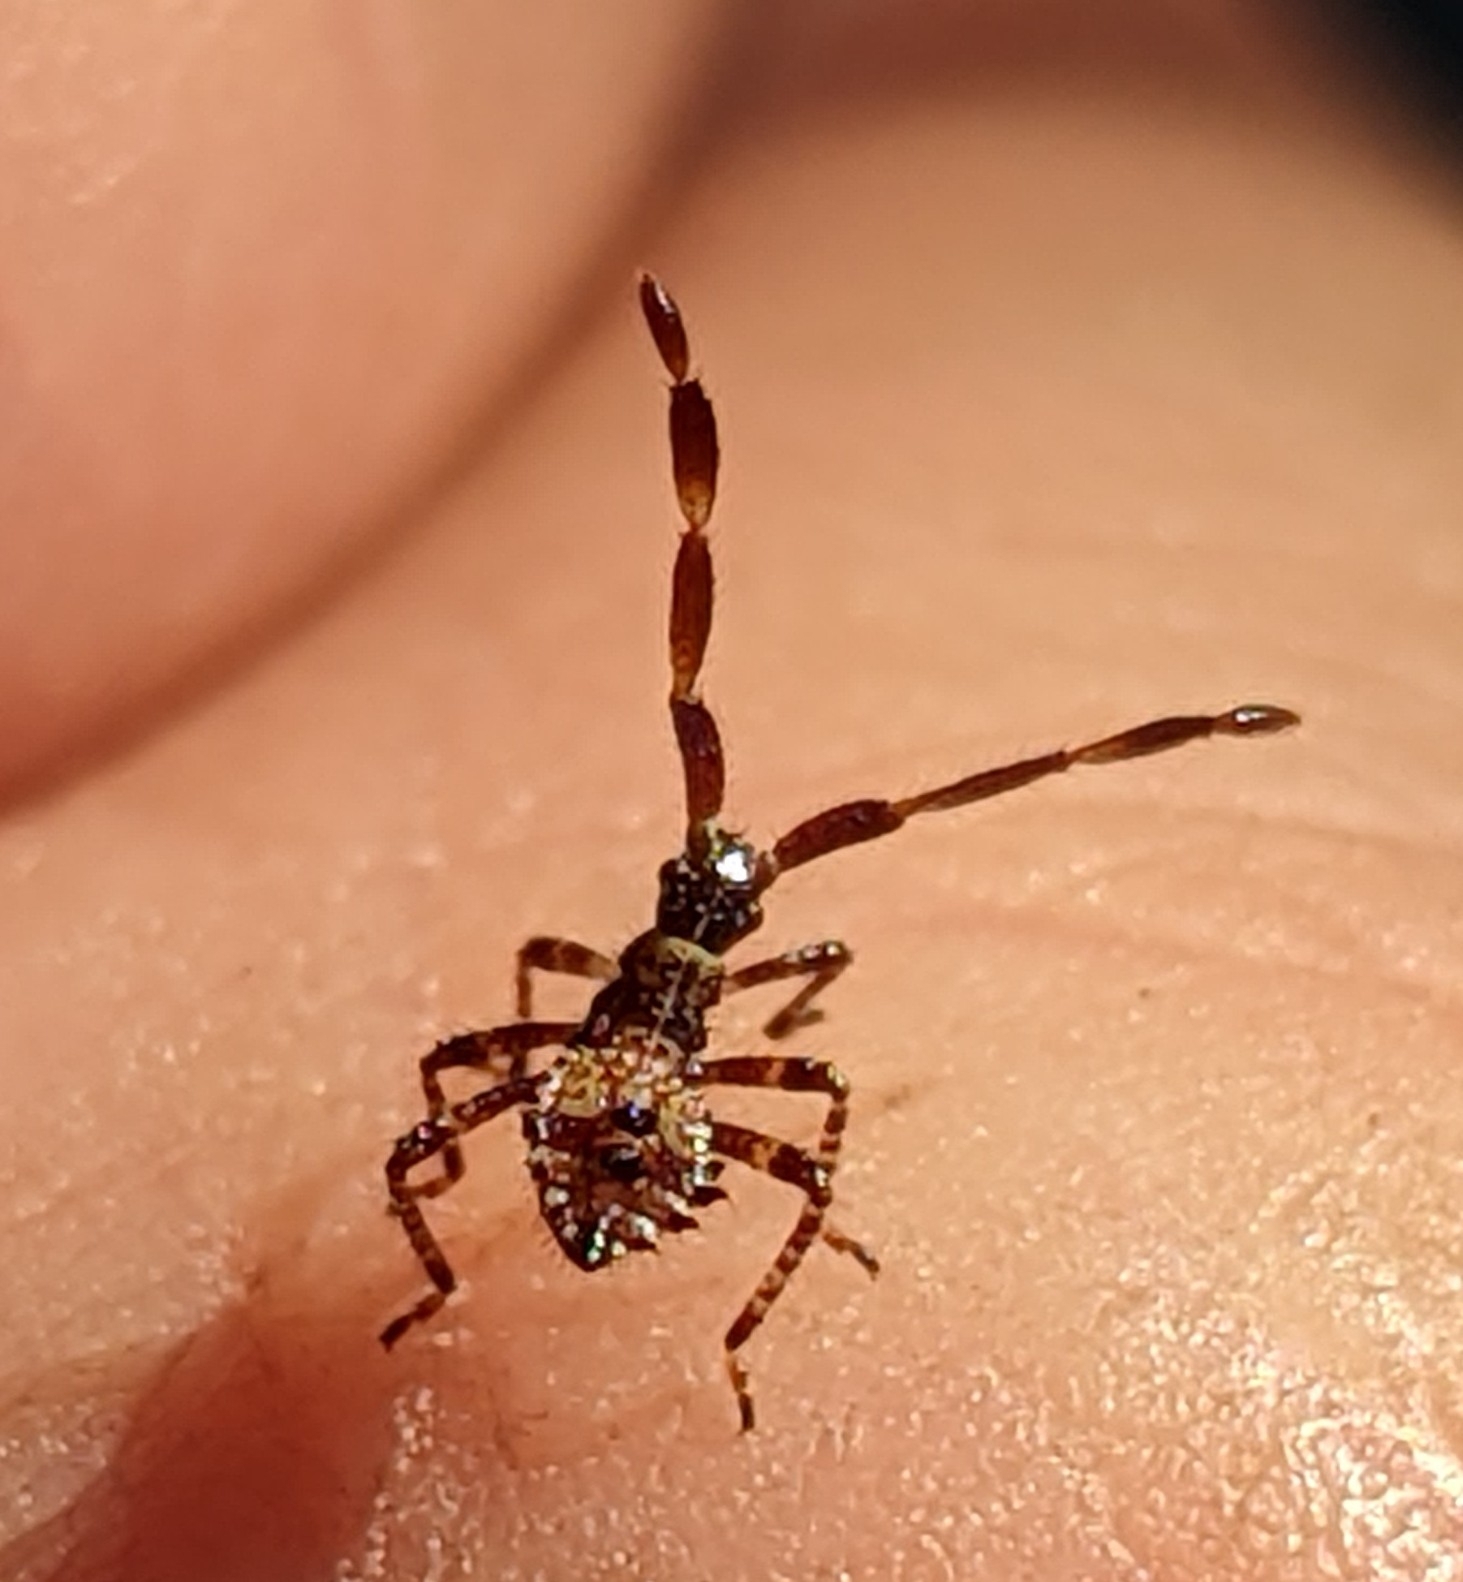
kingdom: Animalia
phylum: Arthropoda
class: Insecta
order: Hemiptera
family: Coreidae
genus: Coreus
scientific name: Coreus marginatus
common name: Dock bug
